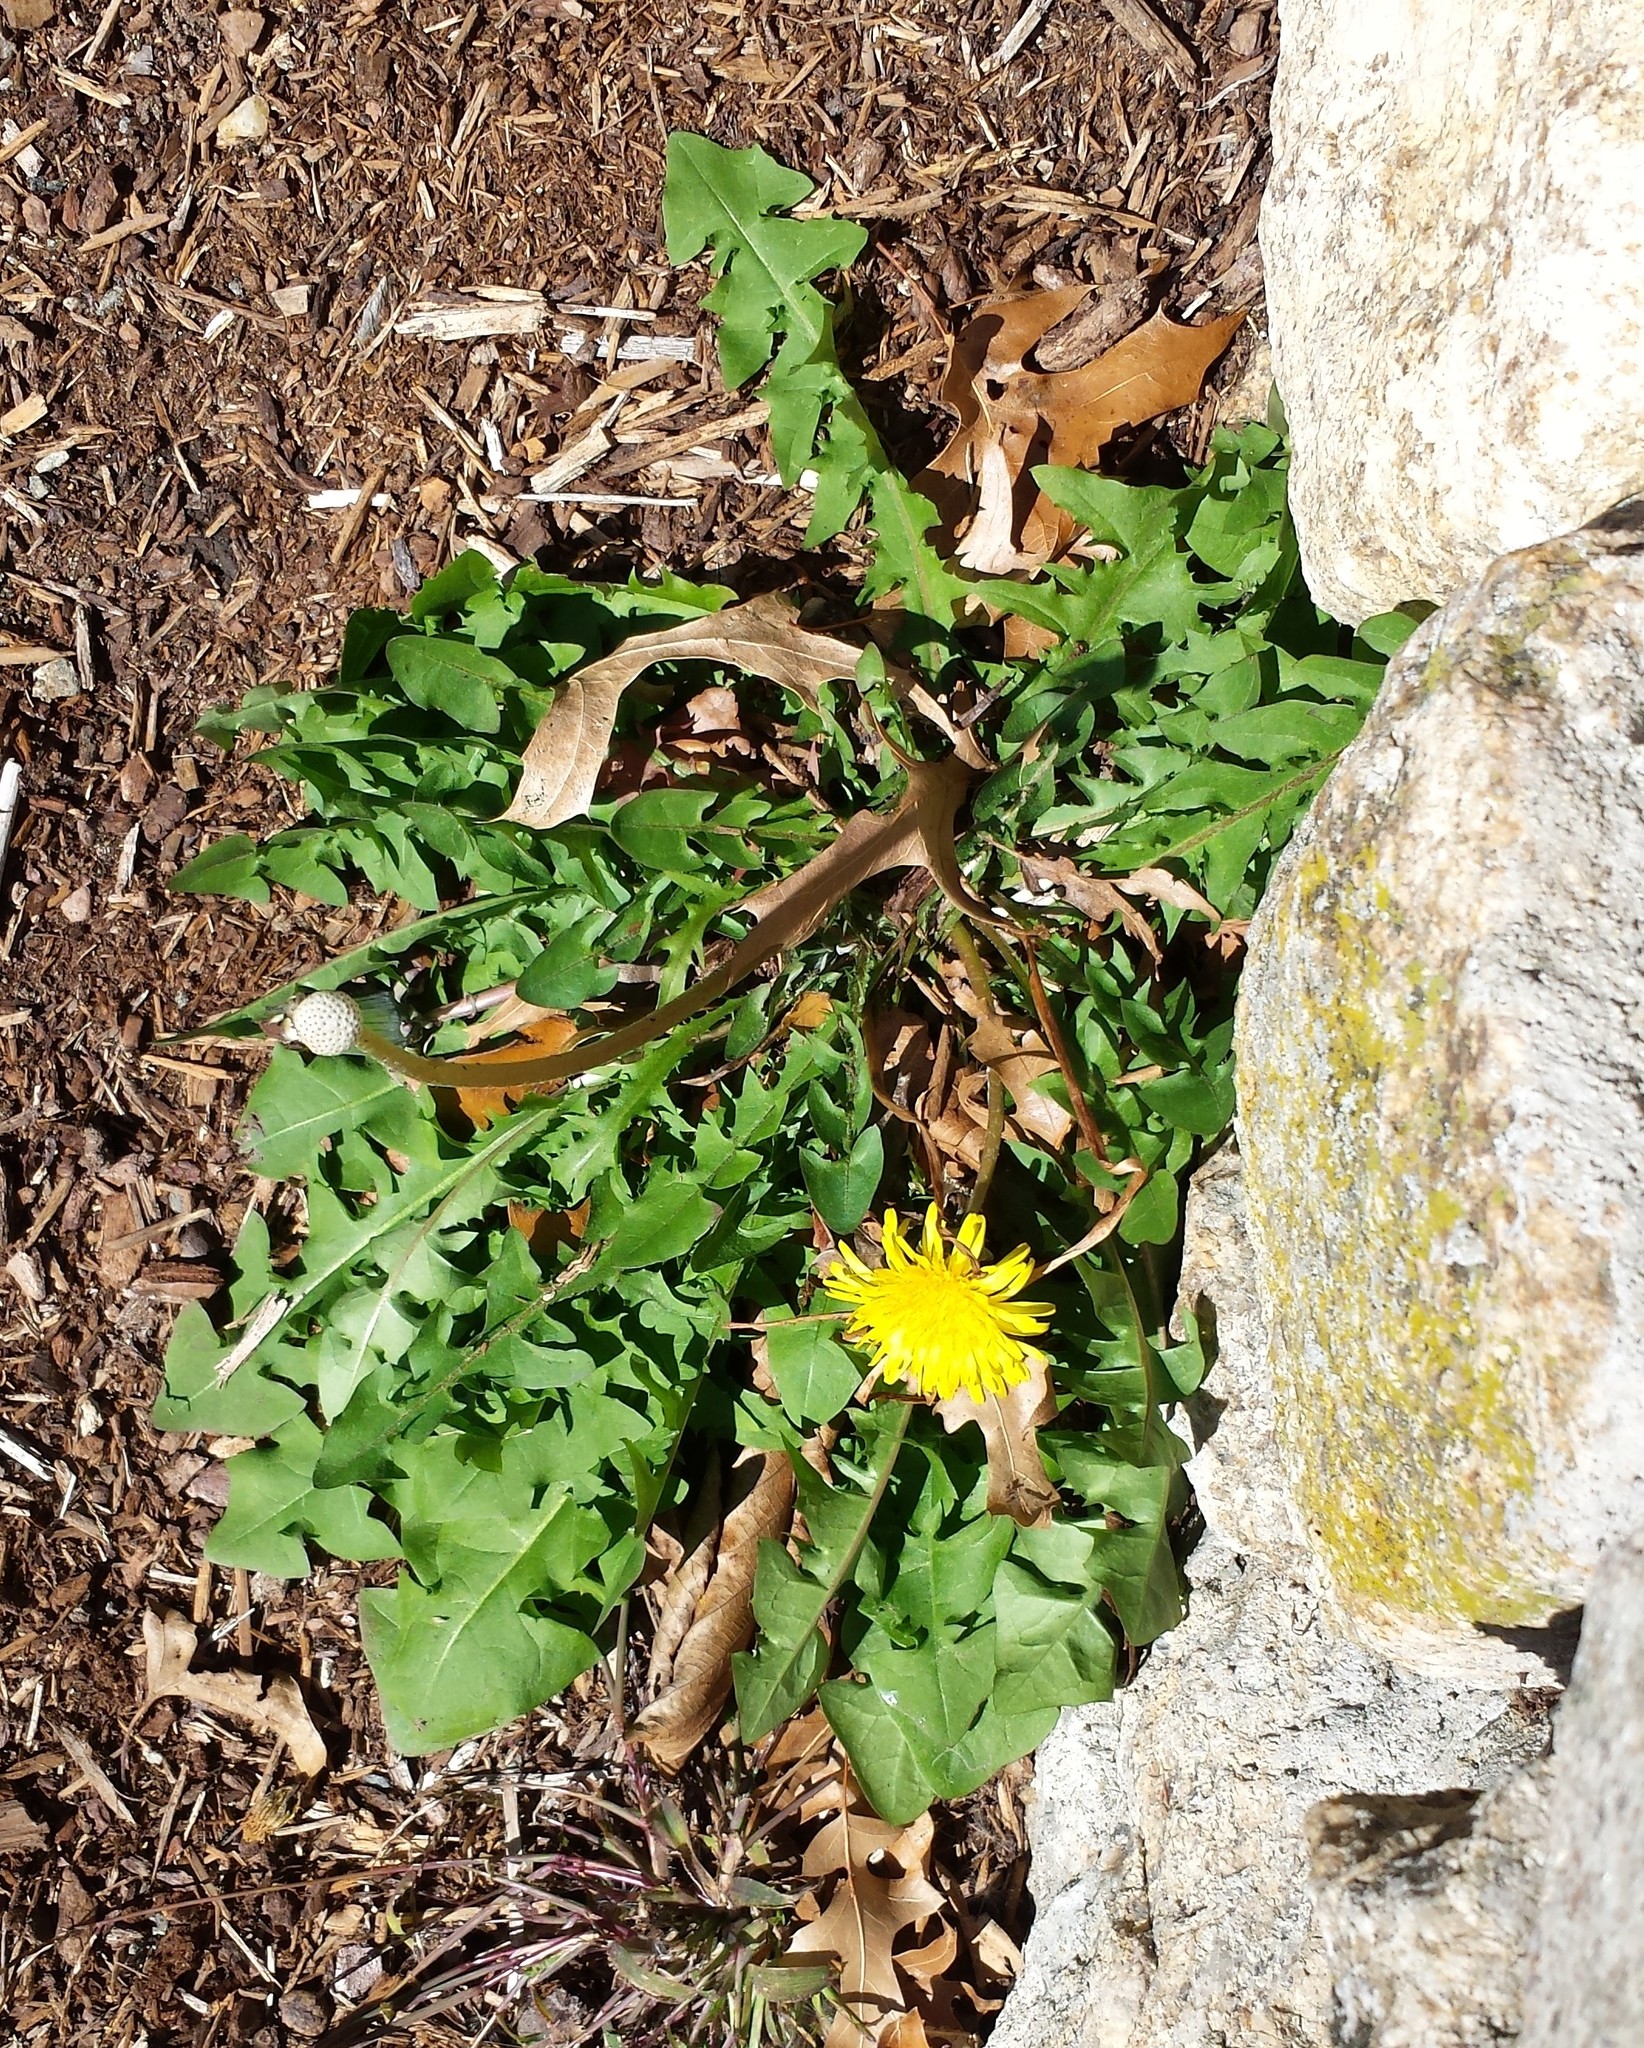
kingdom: Plantae
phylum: Tracheophyta
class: Magnoliopsida
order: Asterales
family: Asteraceae
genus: Taraxacum
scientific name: Taraxacum
